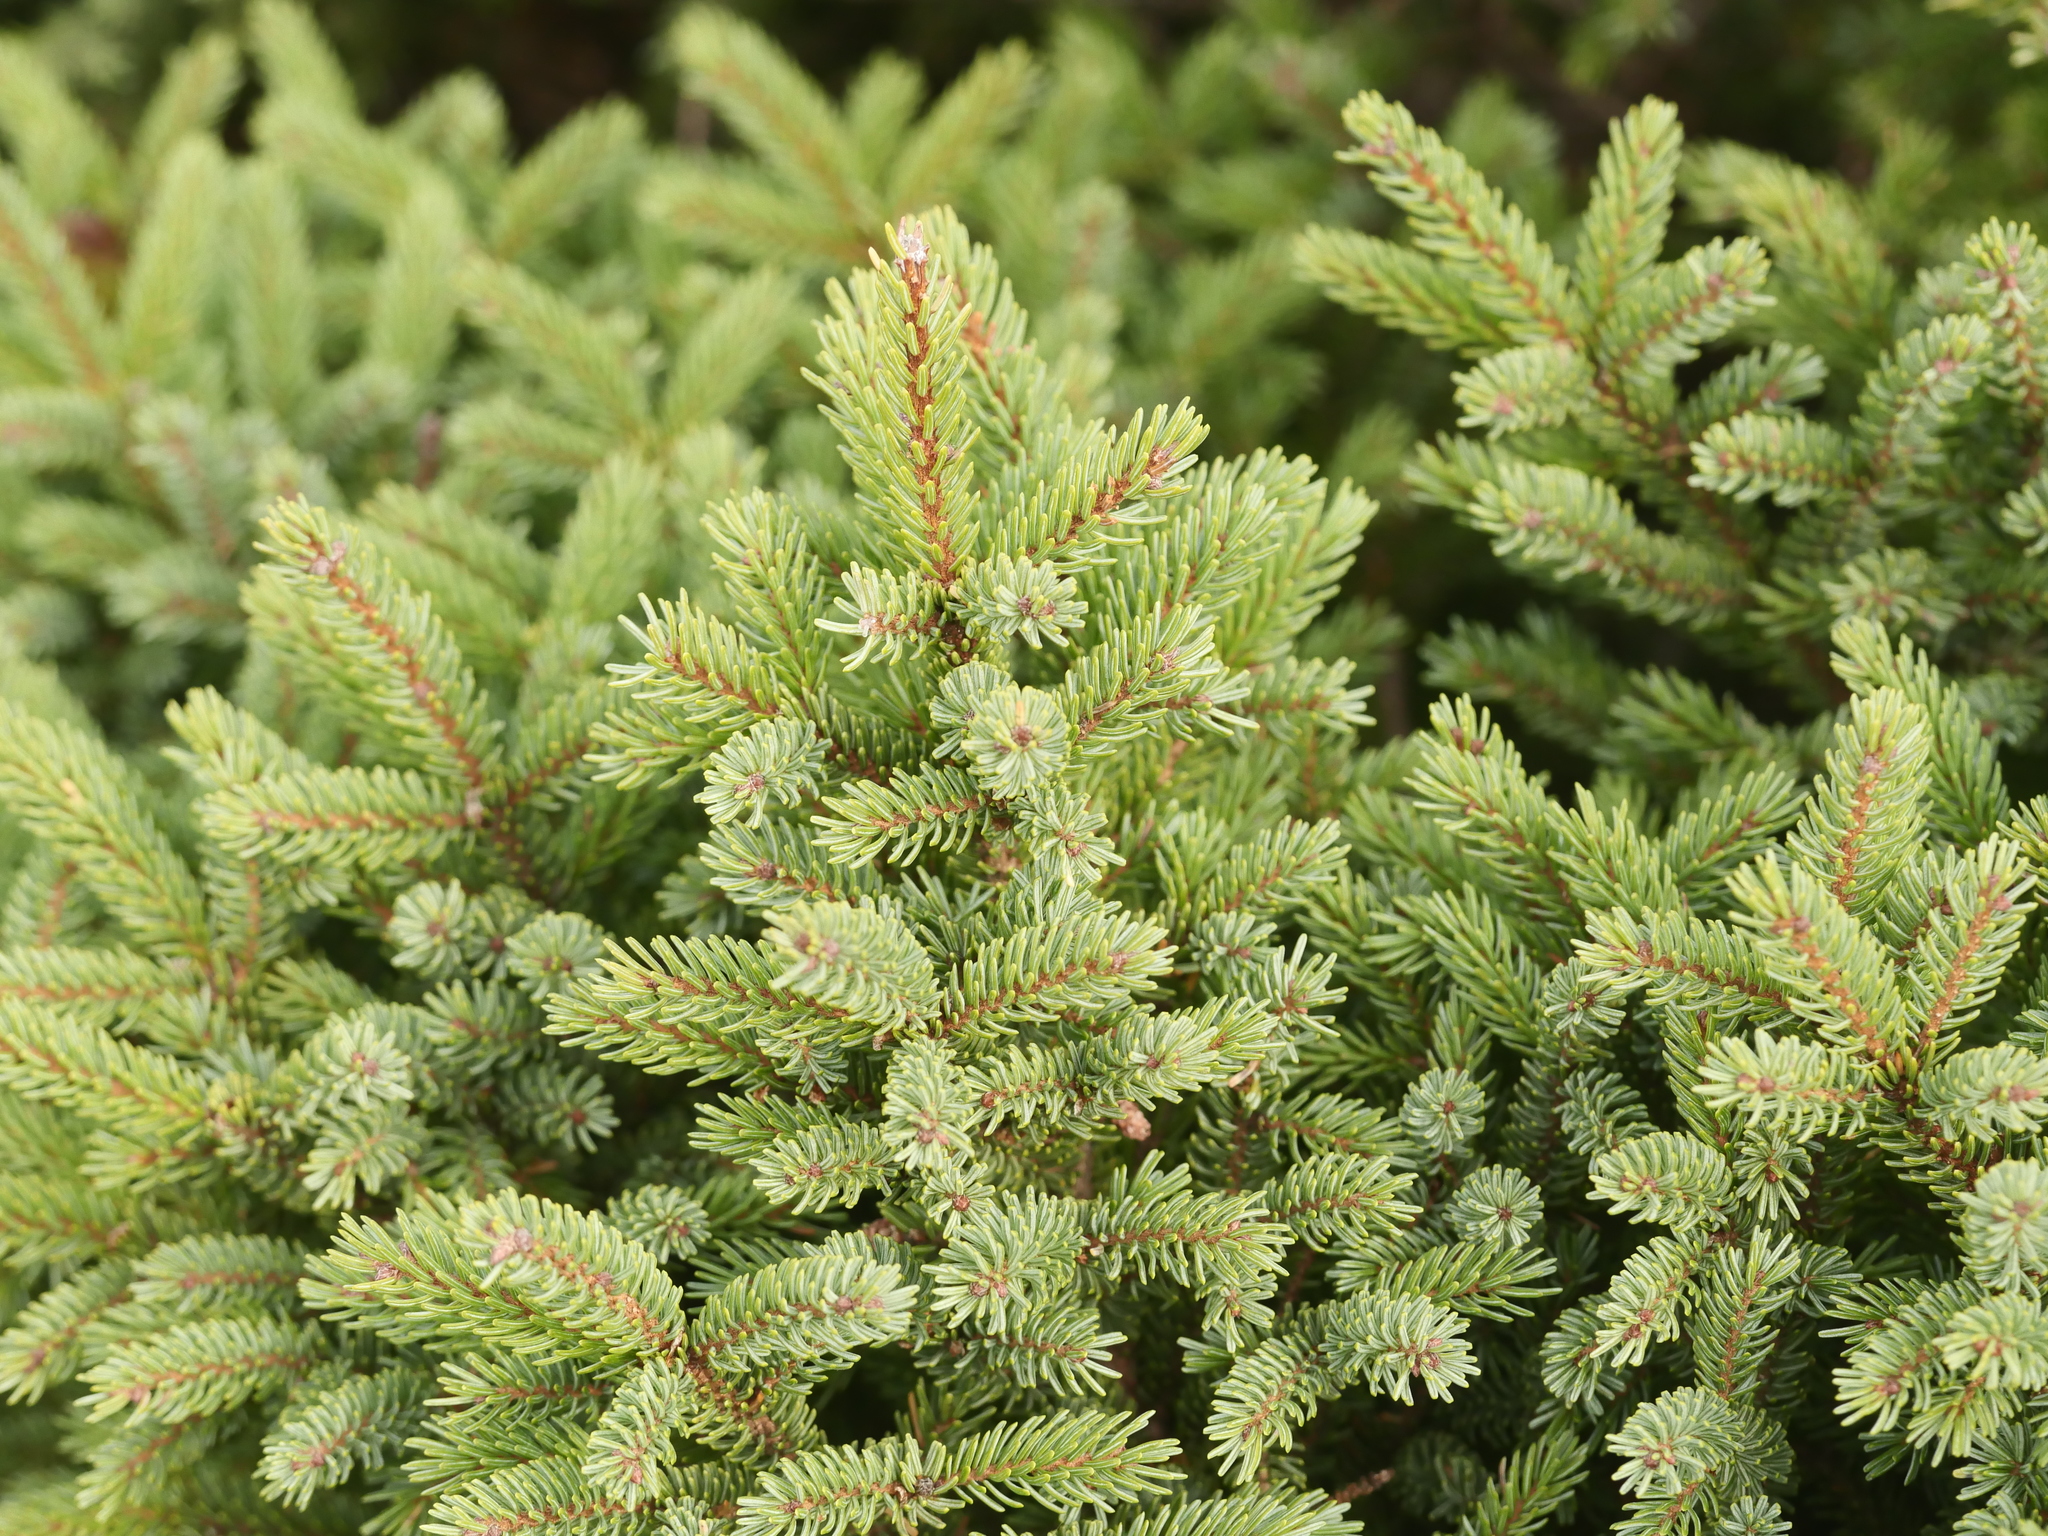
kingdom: Plantae
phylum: Tracheophyta
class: Pinopsida
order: Pinales
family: Pinaceae
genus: Picea
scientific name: Picea mariana
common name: Black spruce
